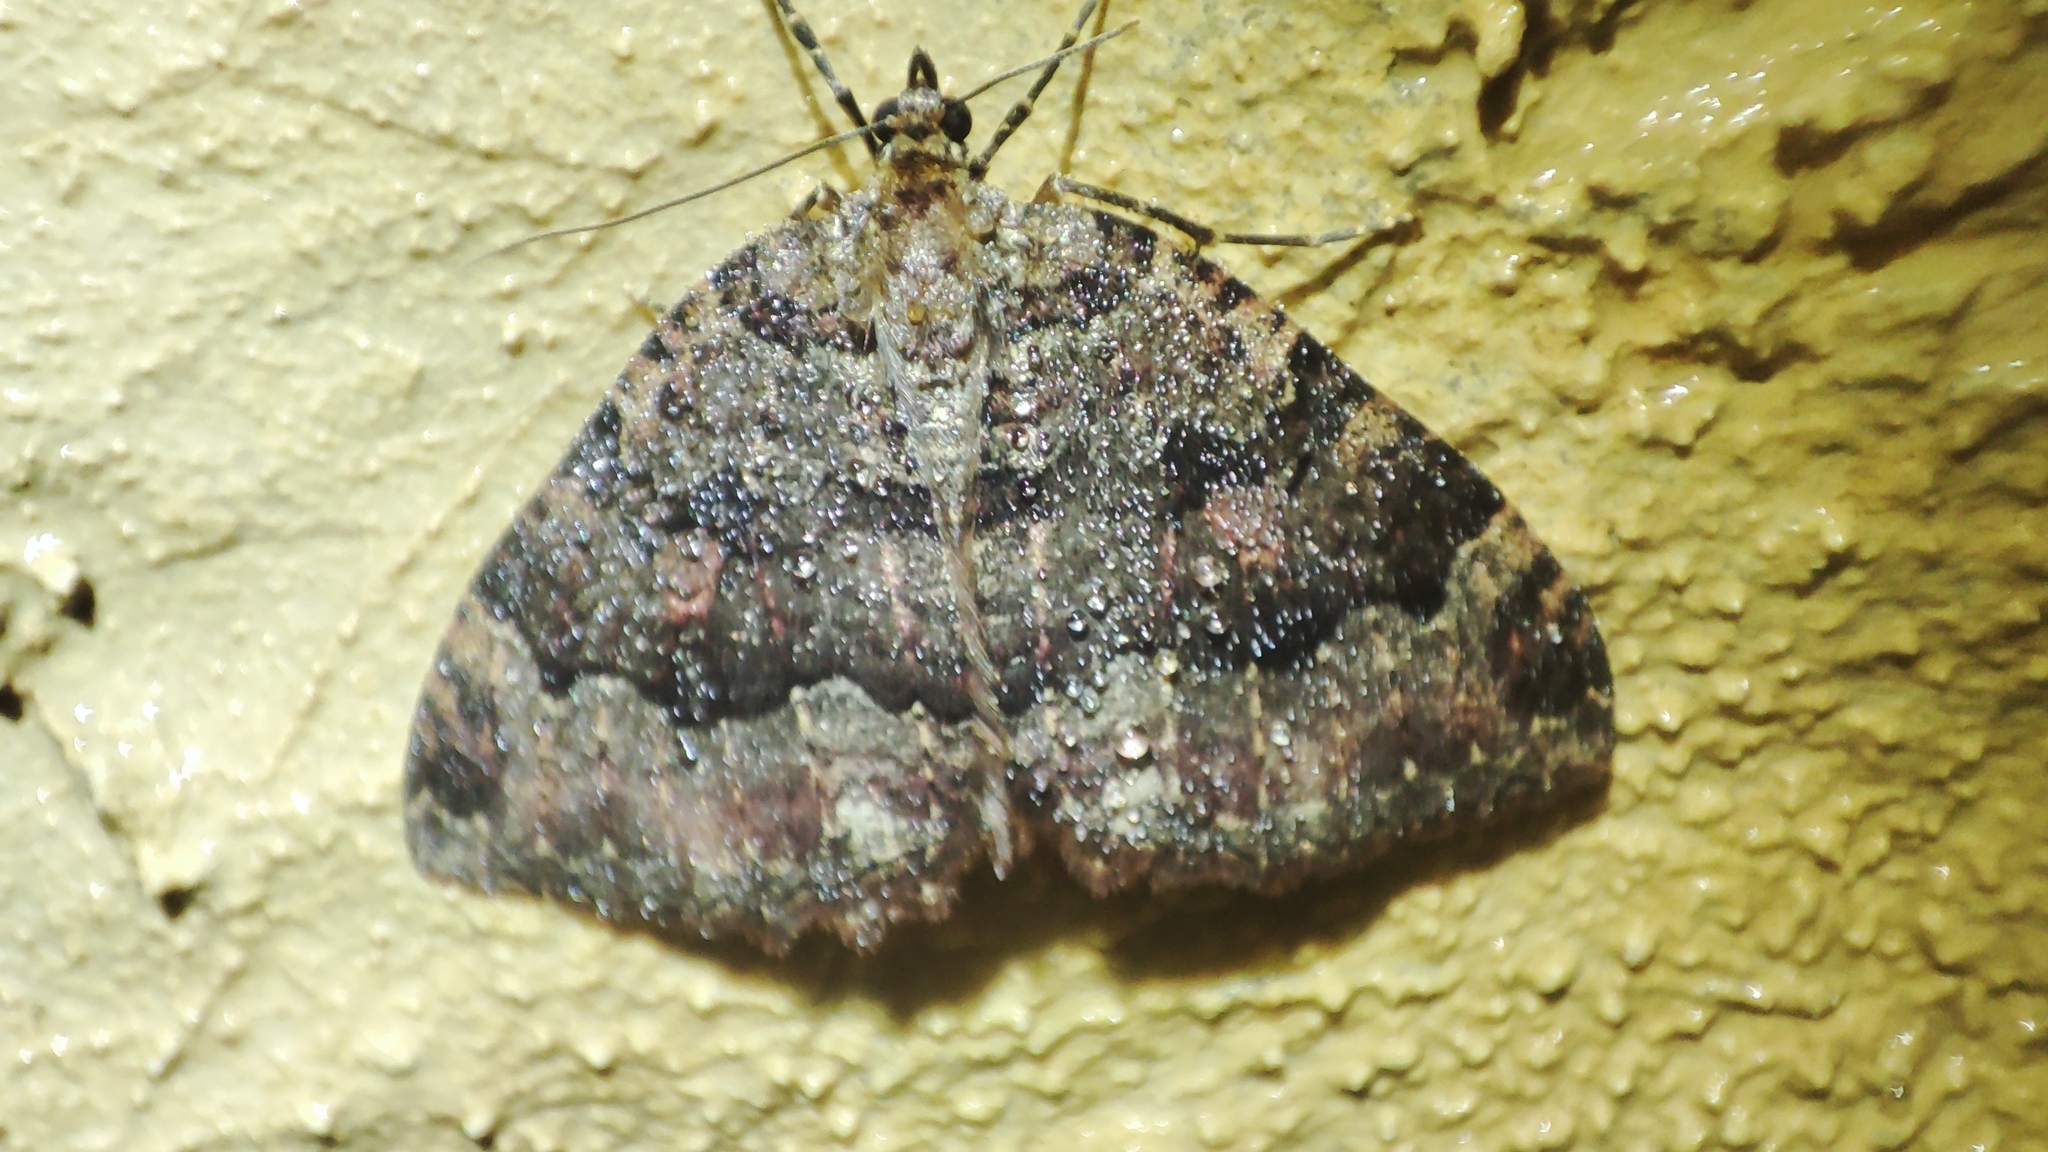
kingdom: Animalia
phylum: Arthropoda
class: Insecta
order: Lepidoptera
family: Geometridae
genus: Triphosa
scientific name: Triphosa dubitata
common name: Tissue
